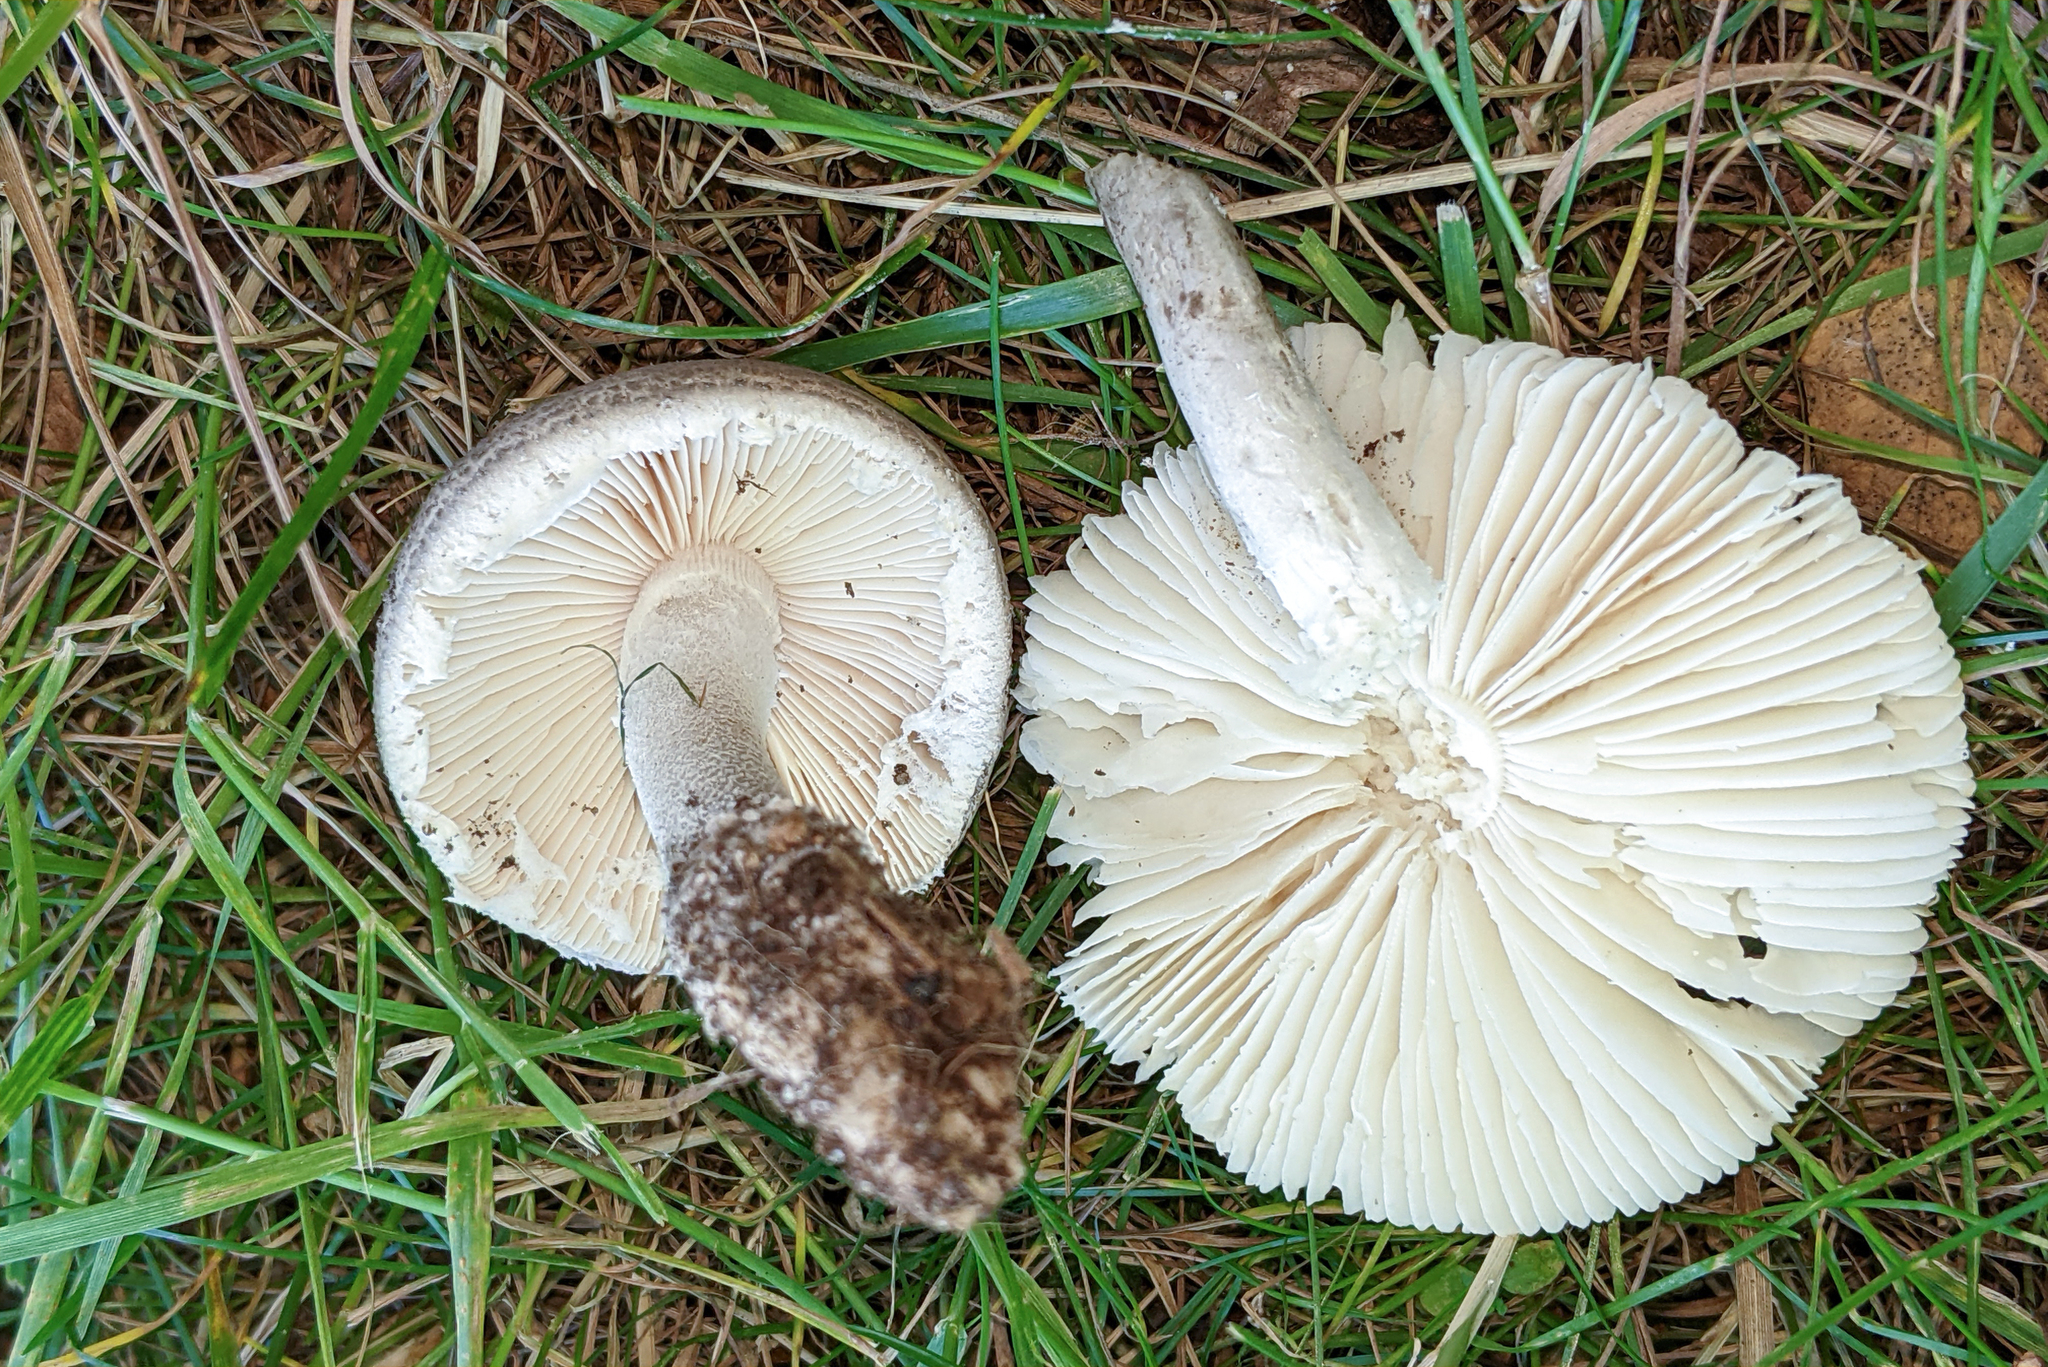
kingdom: Fungi
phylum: Basidiomycota
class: Agaricomycetes
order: Agaricales
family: Amanitaceae
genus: Amanita
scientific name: Amanita onusta
